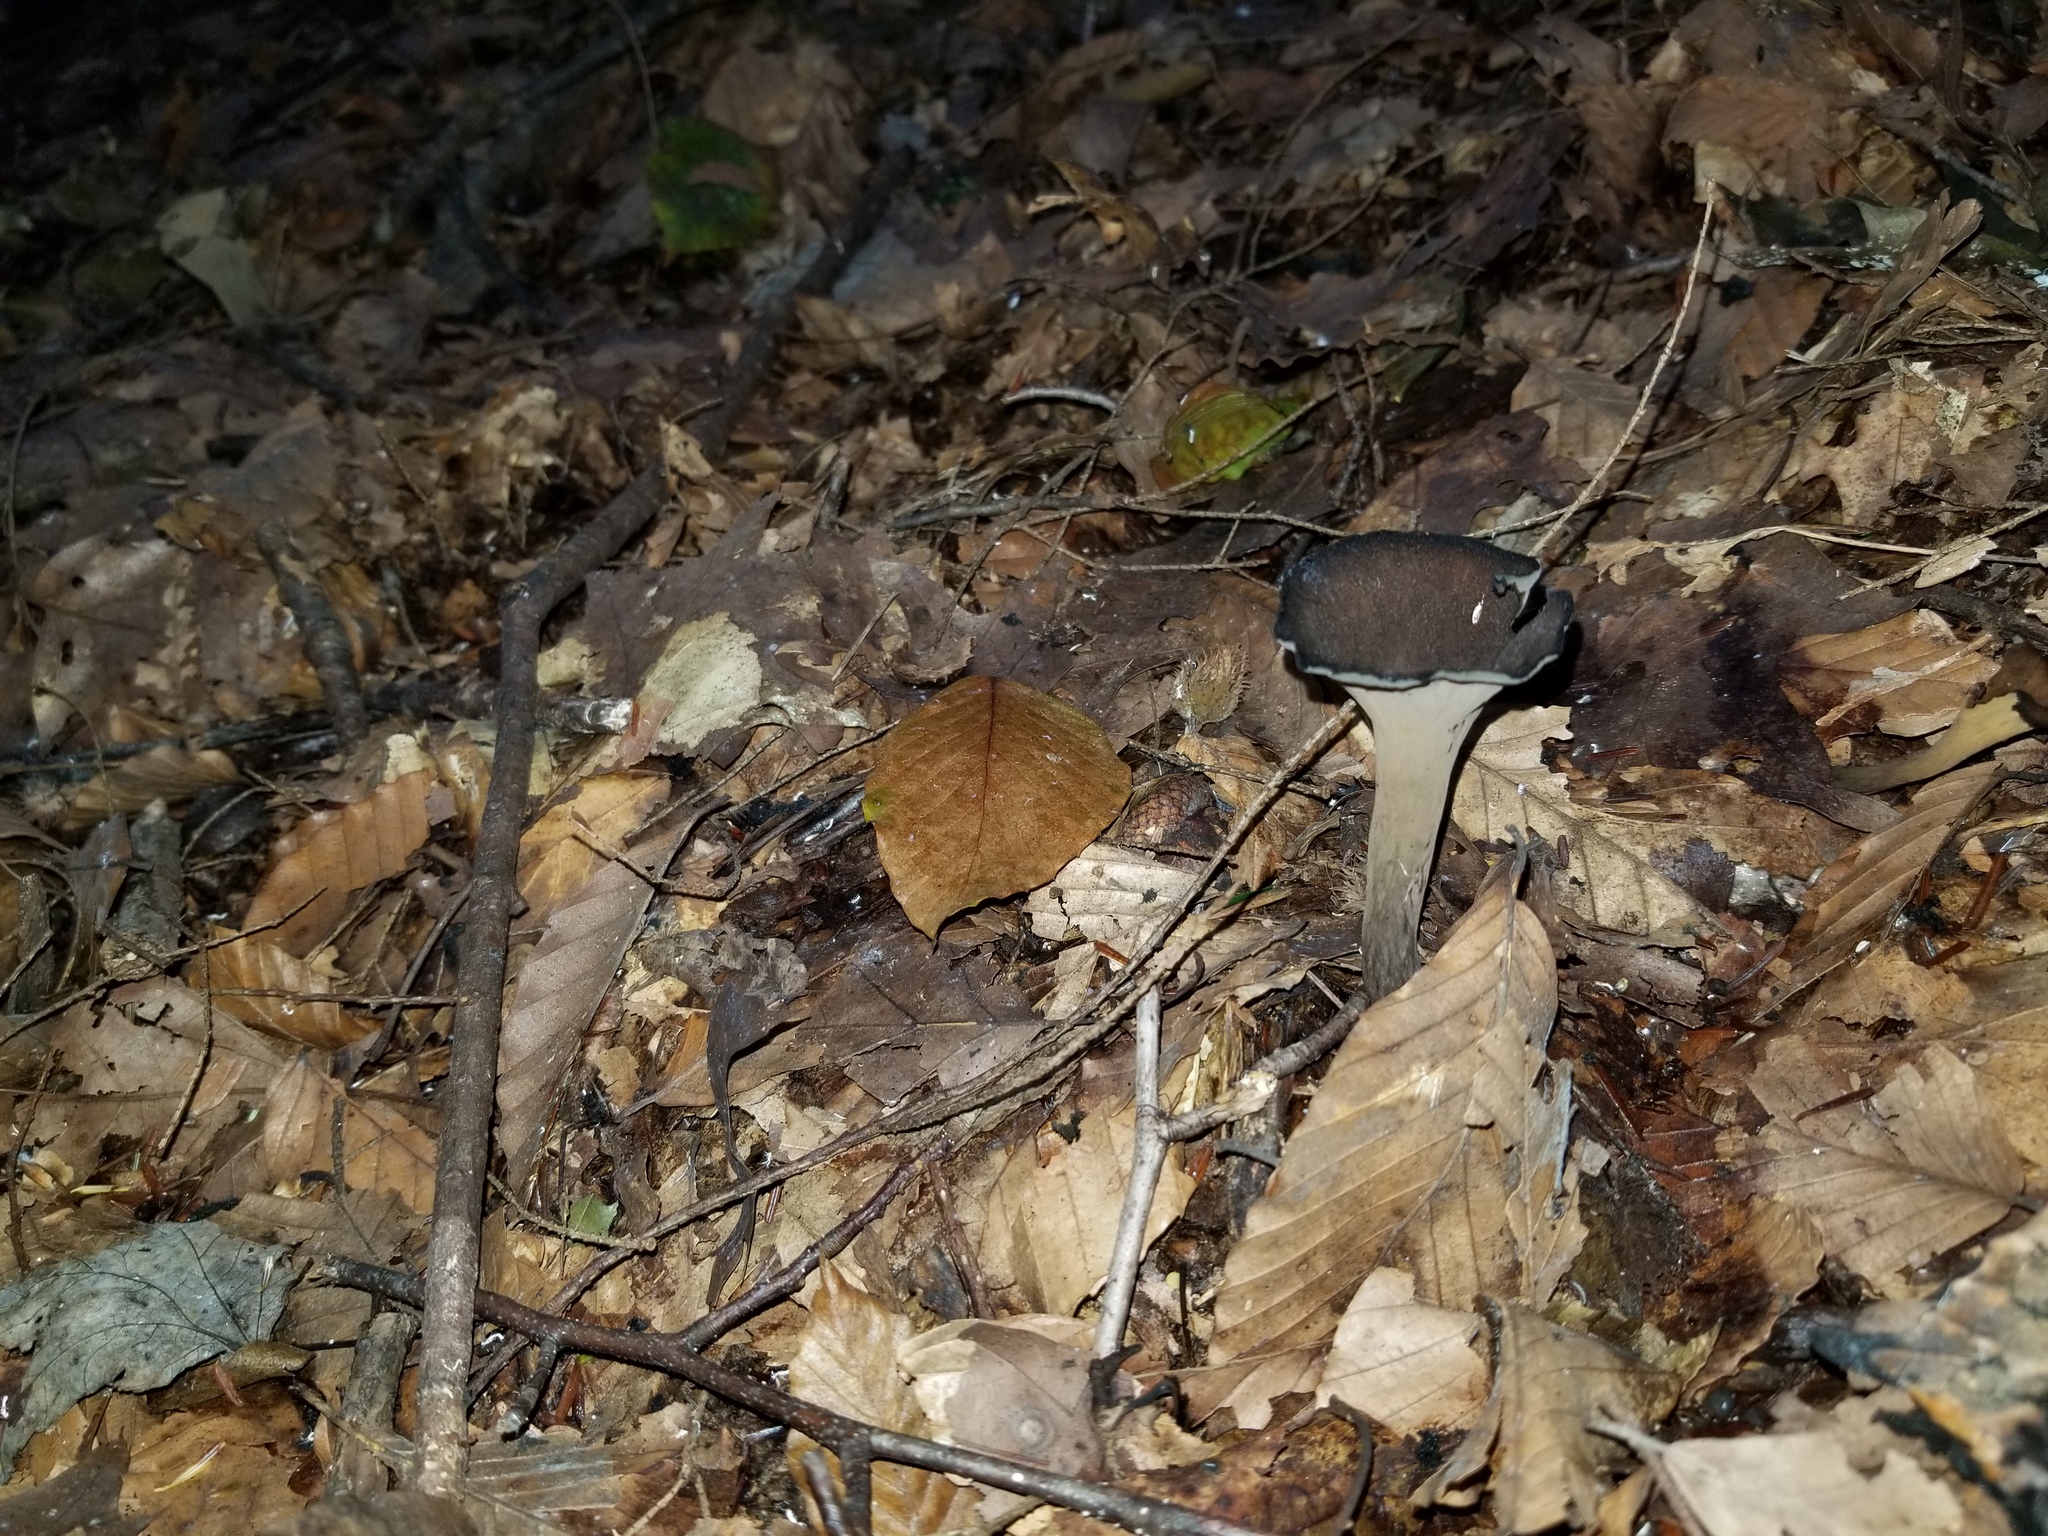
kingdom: Fungi
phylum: Basidiomycota
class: Agaricomycetes
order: Cantharellales
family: Hydnaceae
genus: Craterellus
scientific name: Craterellus cornucopioides
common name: Horn of plenty
